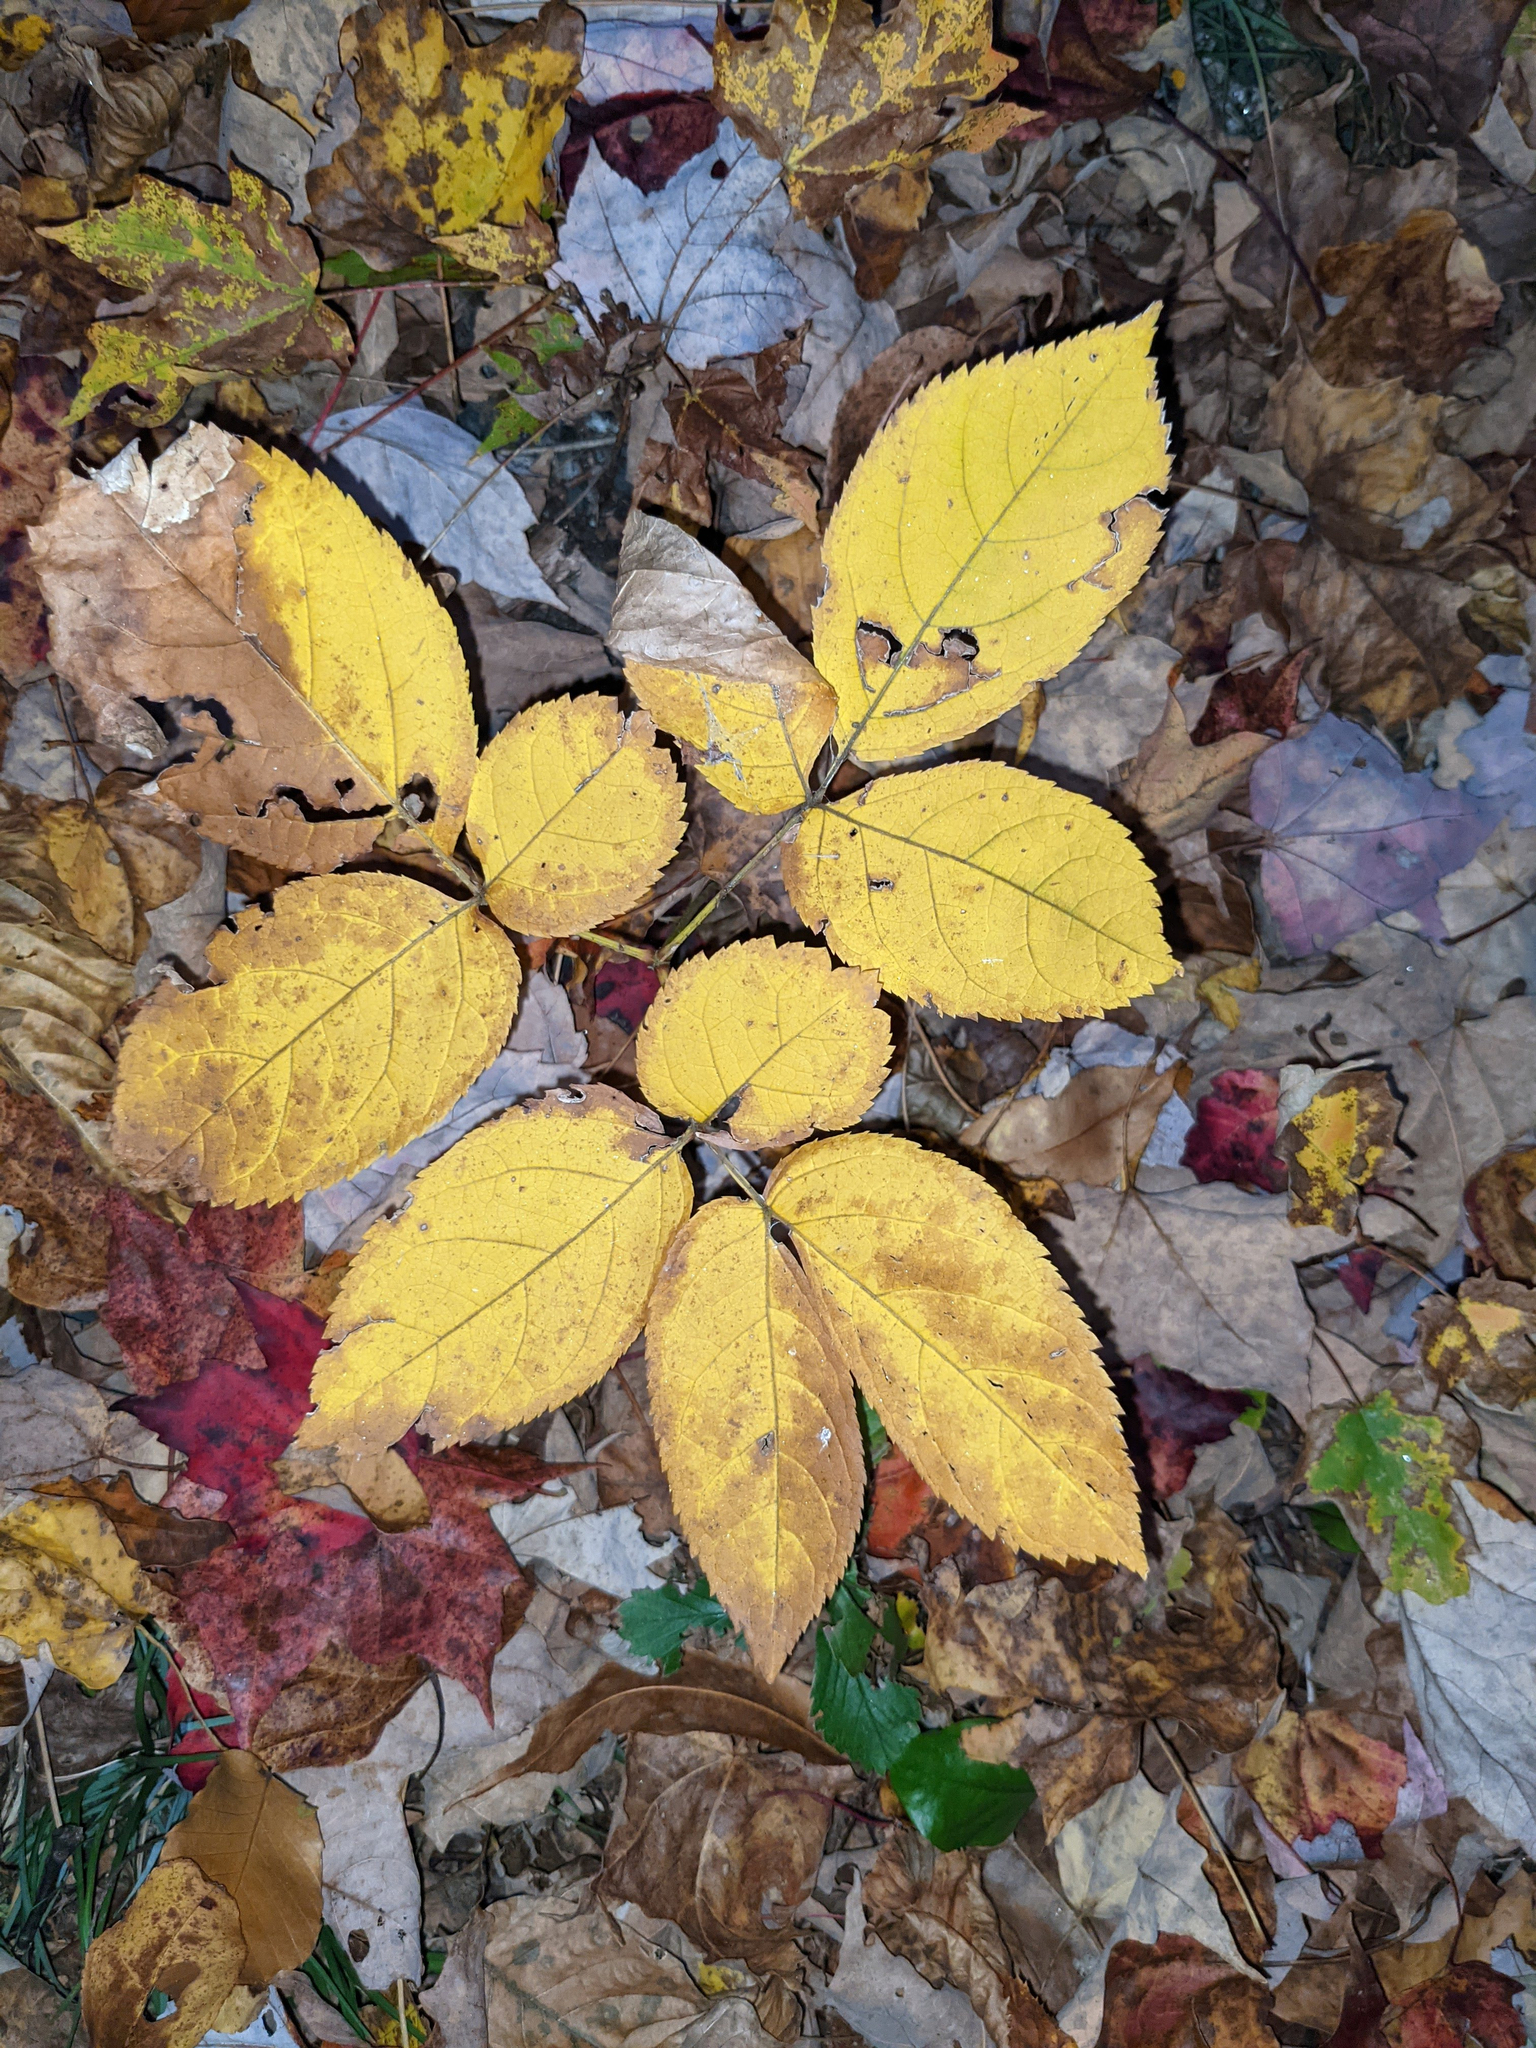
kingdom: Plantae
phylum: Tracheophyta
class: Magnoliopsida
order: Apiales
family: Araliaceae
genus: Aralia
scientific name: Aralia nudicaulis
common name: Wild sarsaparilla
